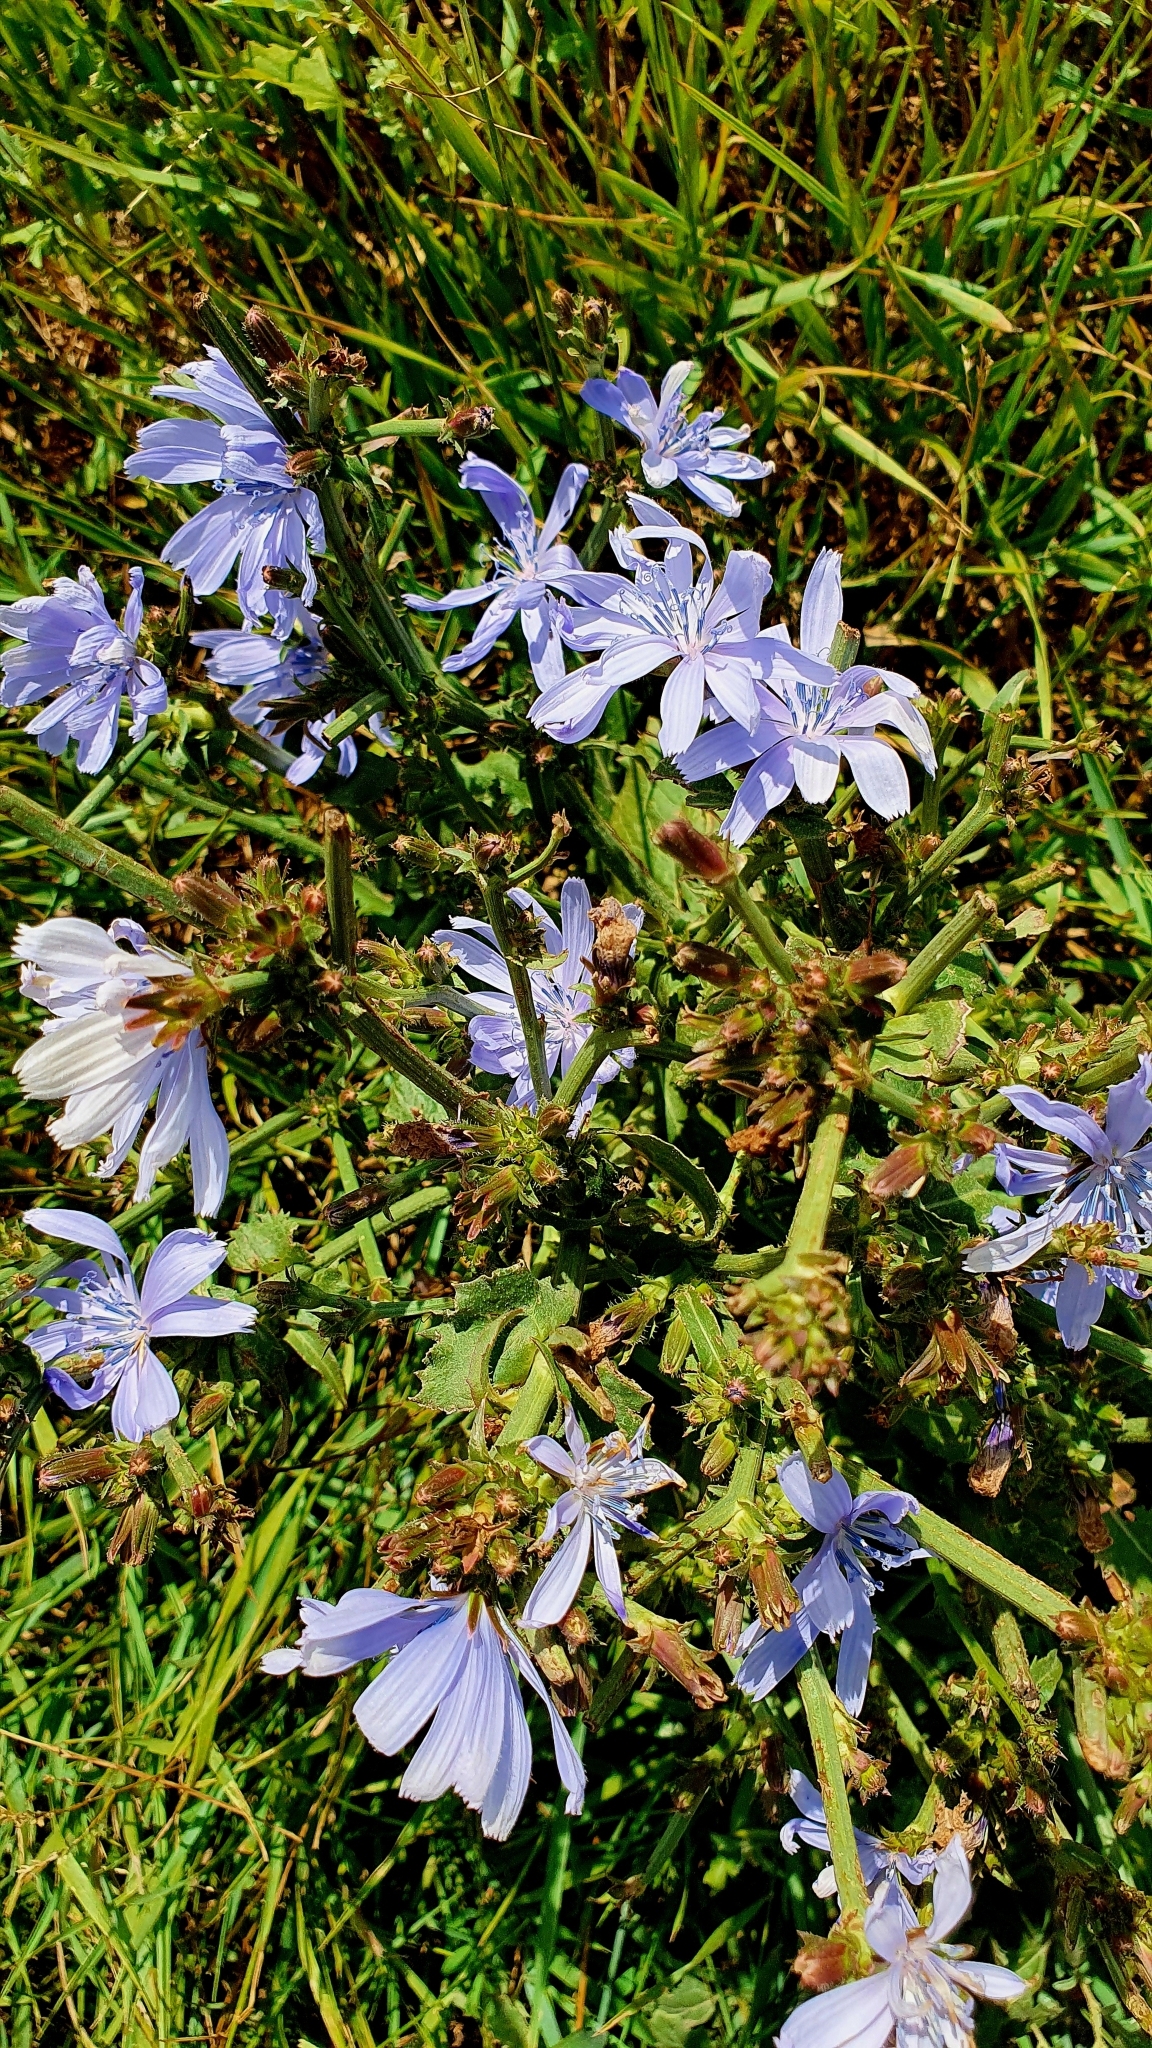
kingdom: Plantae
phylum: Tracheophyta
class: Magnoliopsida
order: Asterales
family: Asteraceae
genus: Cichorium
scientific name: Cichorium intybus
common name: Chicory
